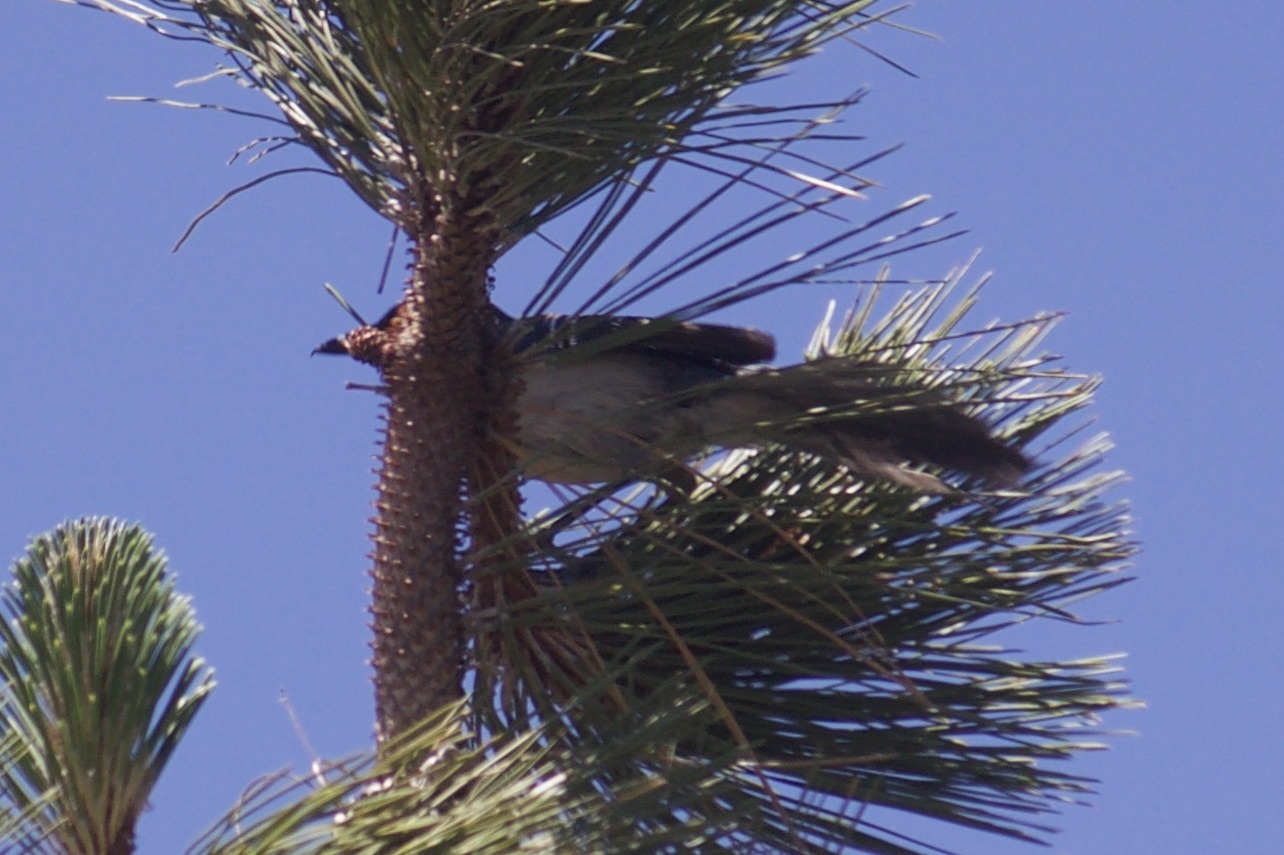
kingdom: Animalia
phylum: Chordata
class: Aves
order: Passeriformes
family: Corvidae
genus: Aphelocoma
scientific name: Aphelocoma californica
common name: California scrub-jay
